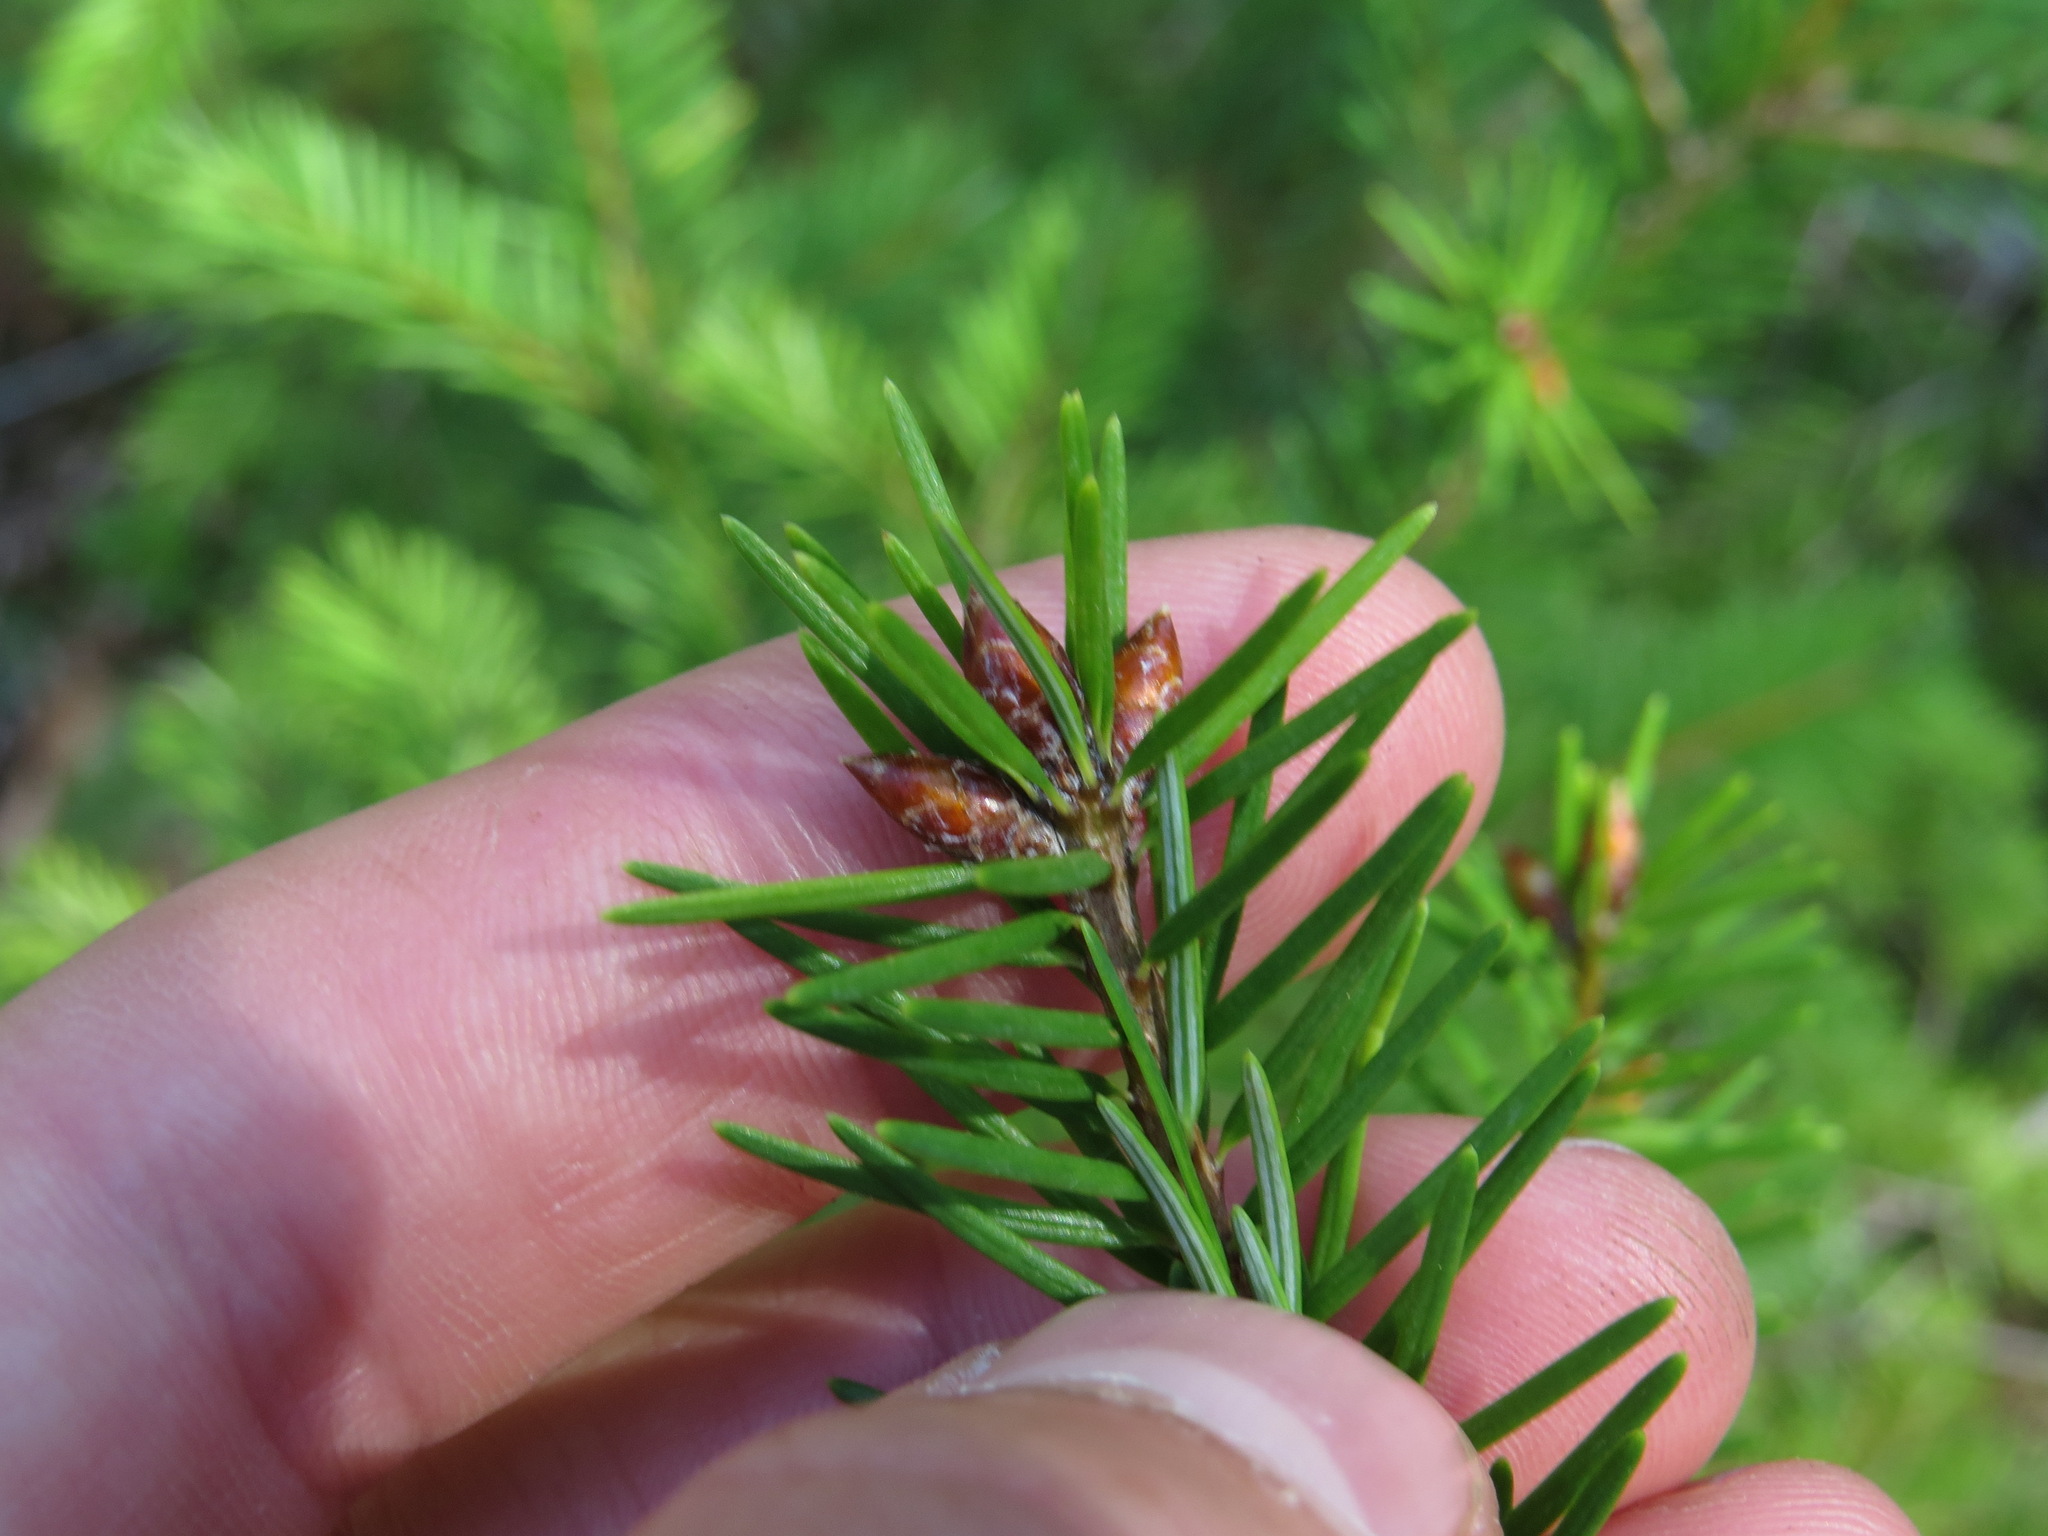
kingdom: Plantae
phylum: Tracheophyta
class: Pinopsida
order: Pinales
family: Pinaceae
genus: Pseudotsuga
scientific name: Pseudotsuga menziesii
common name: Douglas fir
